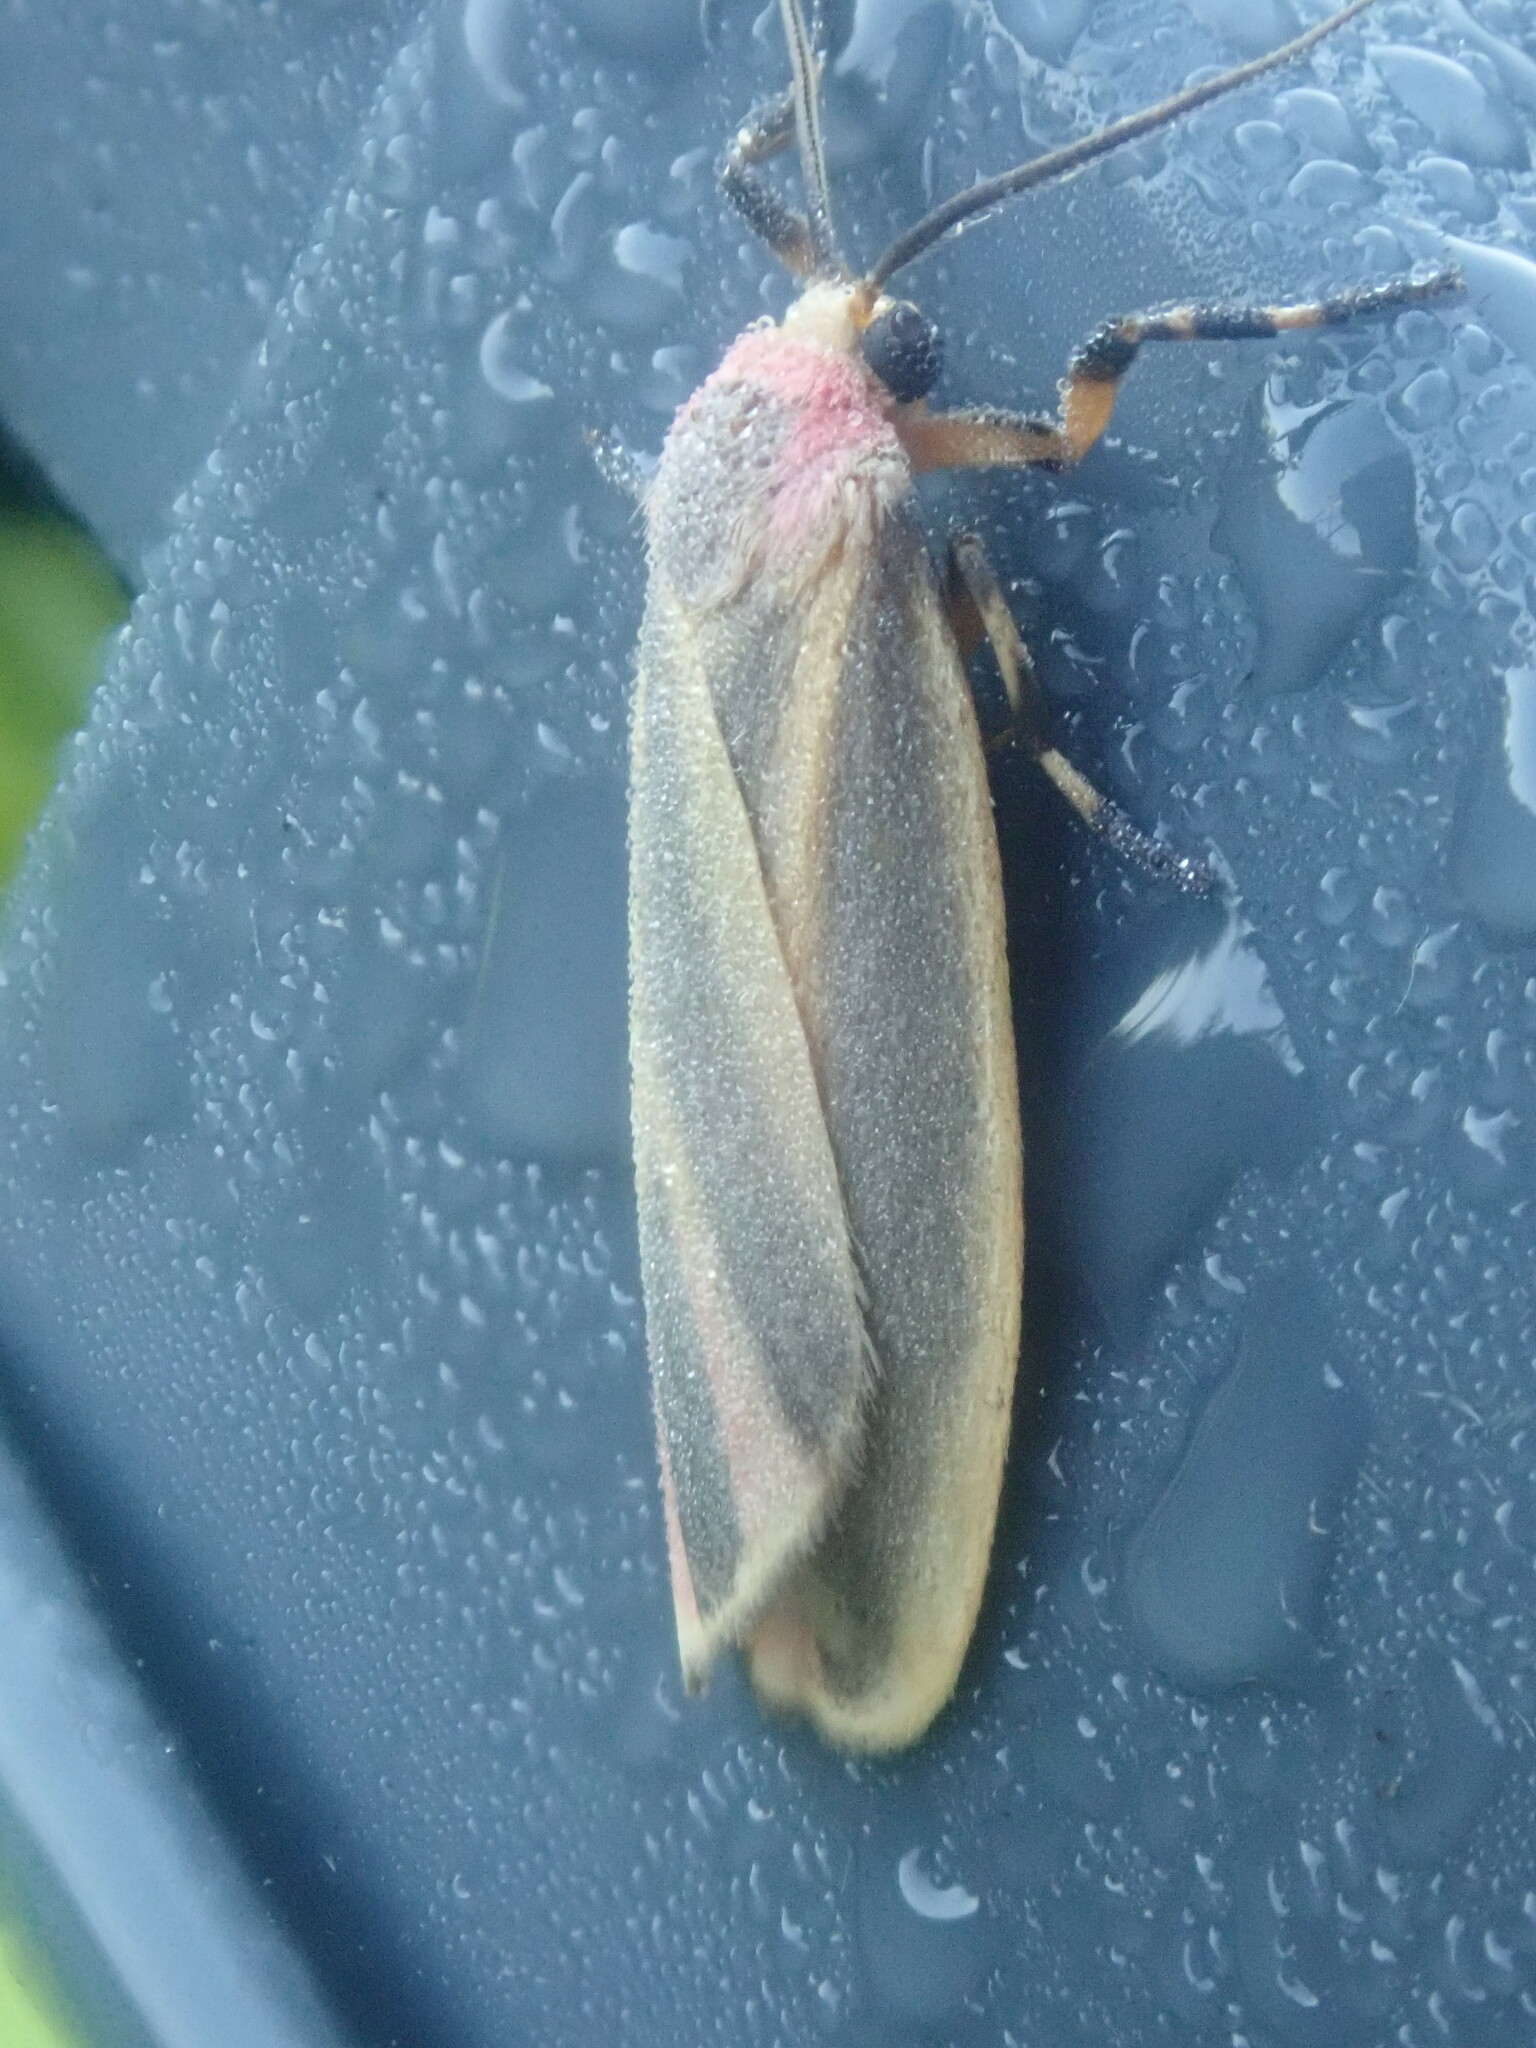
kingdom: Animalia
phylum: Arthropoda
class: Insecta
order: Lepidoptera
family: Erebidae
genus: Hypoprepia
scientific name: Hypoprepia fucosa
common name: Painted lichen moth
